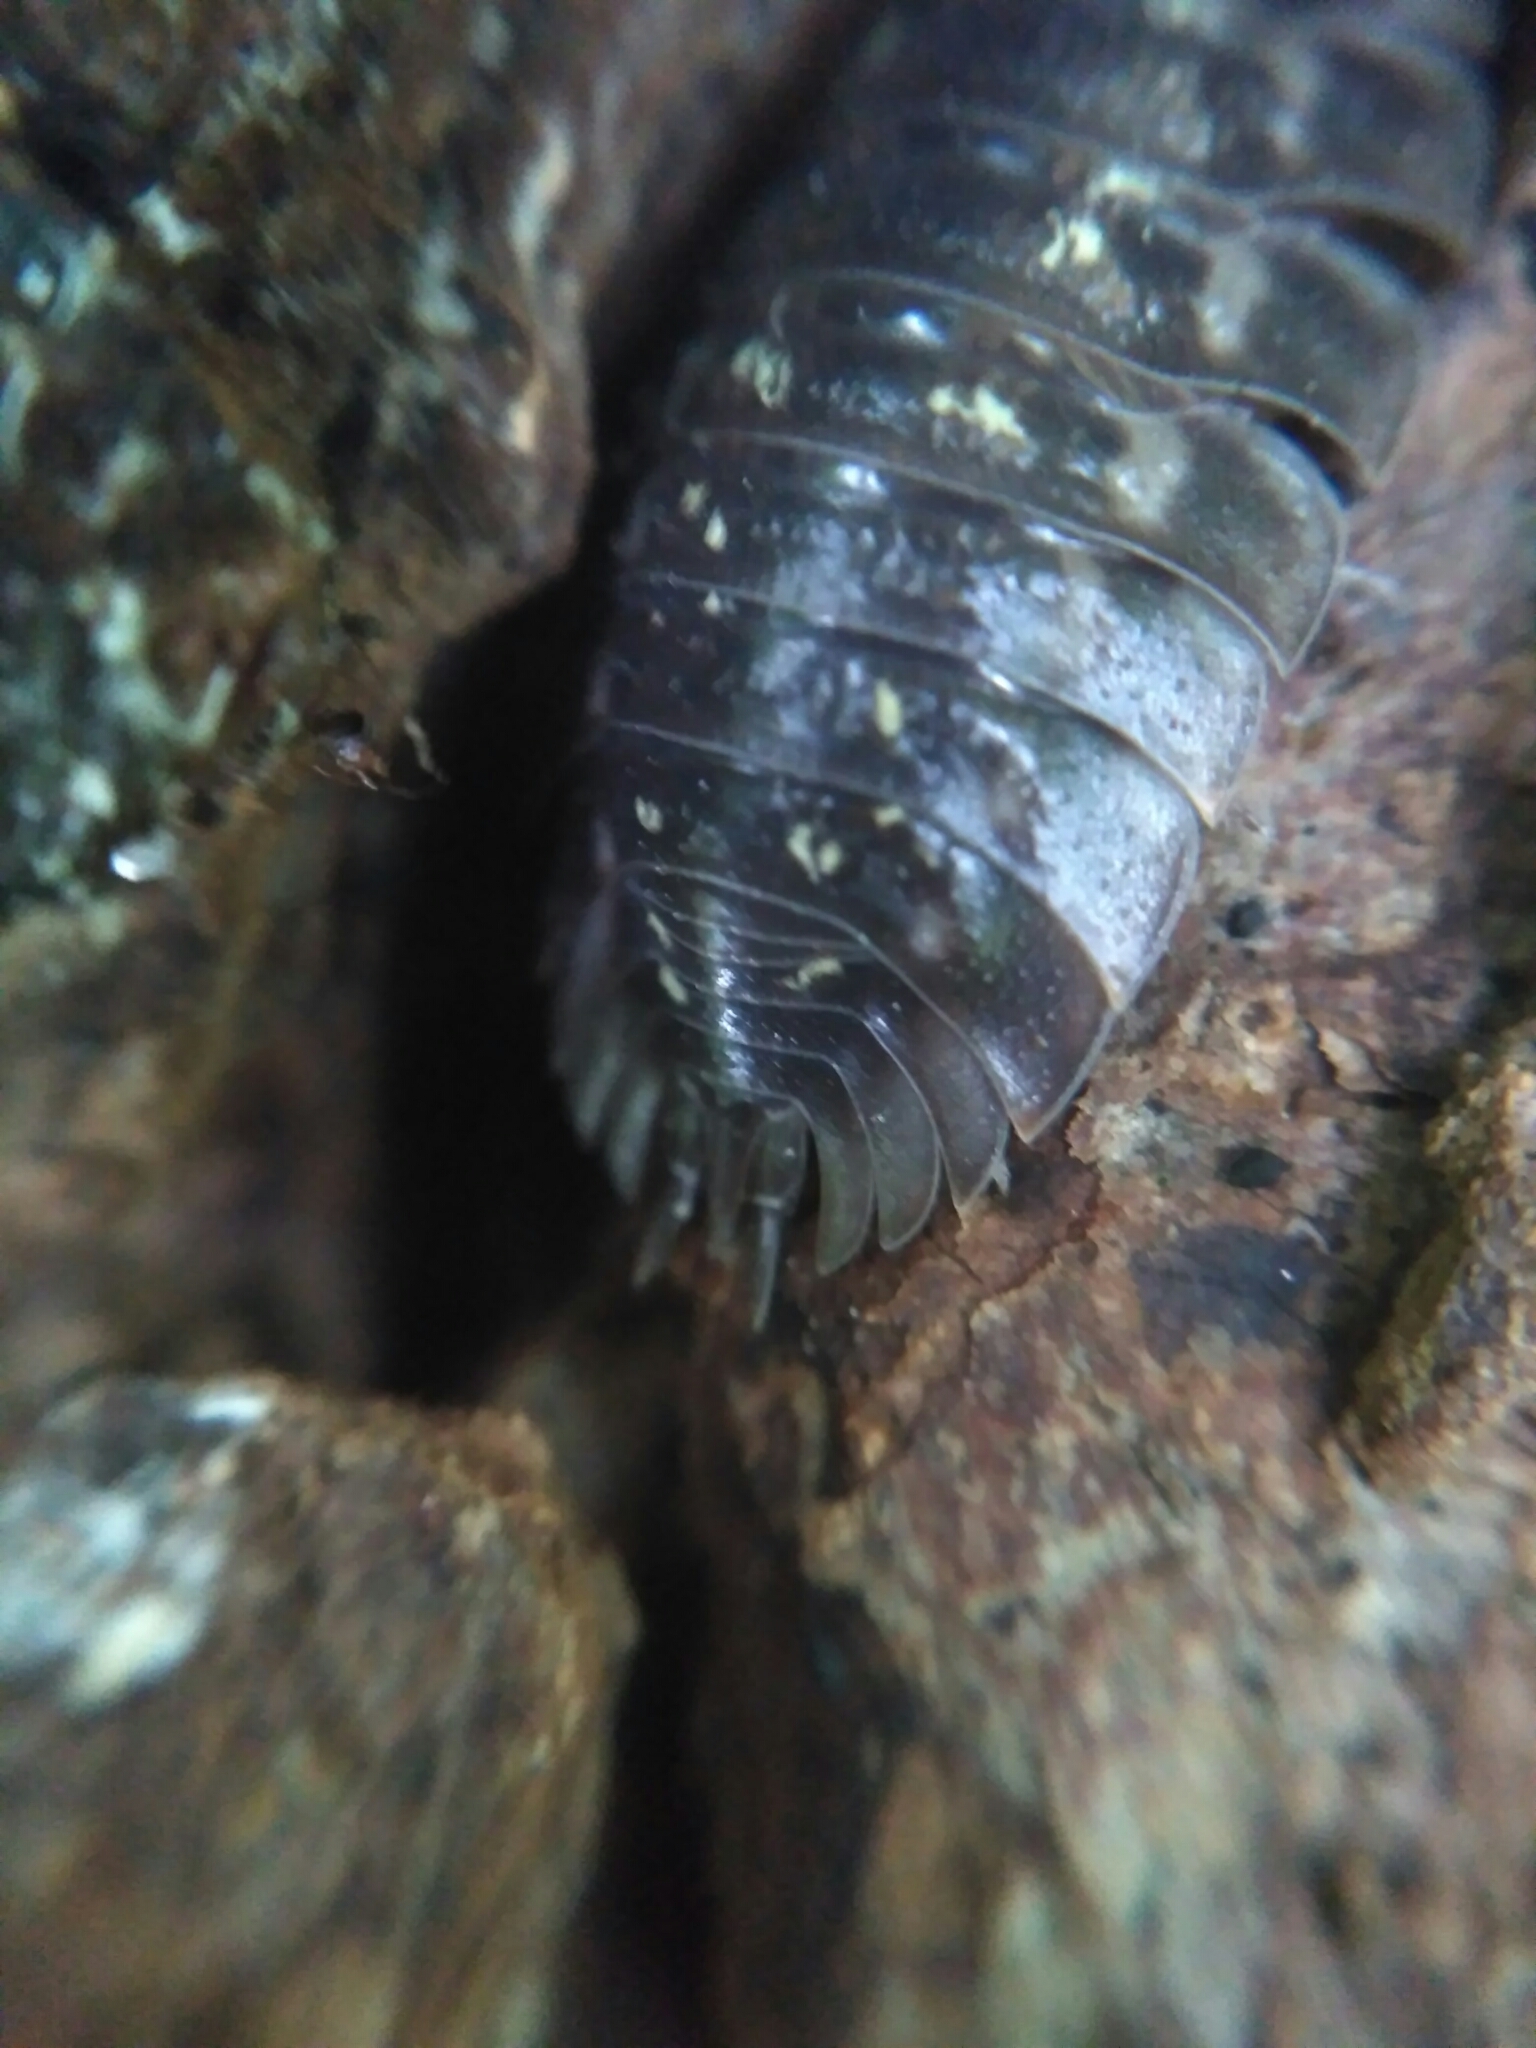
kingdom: Animalia
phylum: Arthropoda
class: Malacostraca
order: Isopoda
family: Oniscidae
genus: Oniscus
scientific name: Oniscus asellus
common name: Common shiny woodlouse
